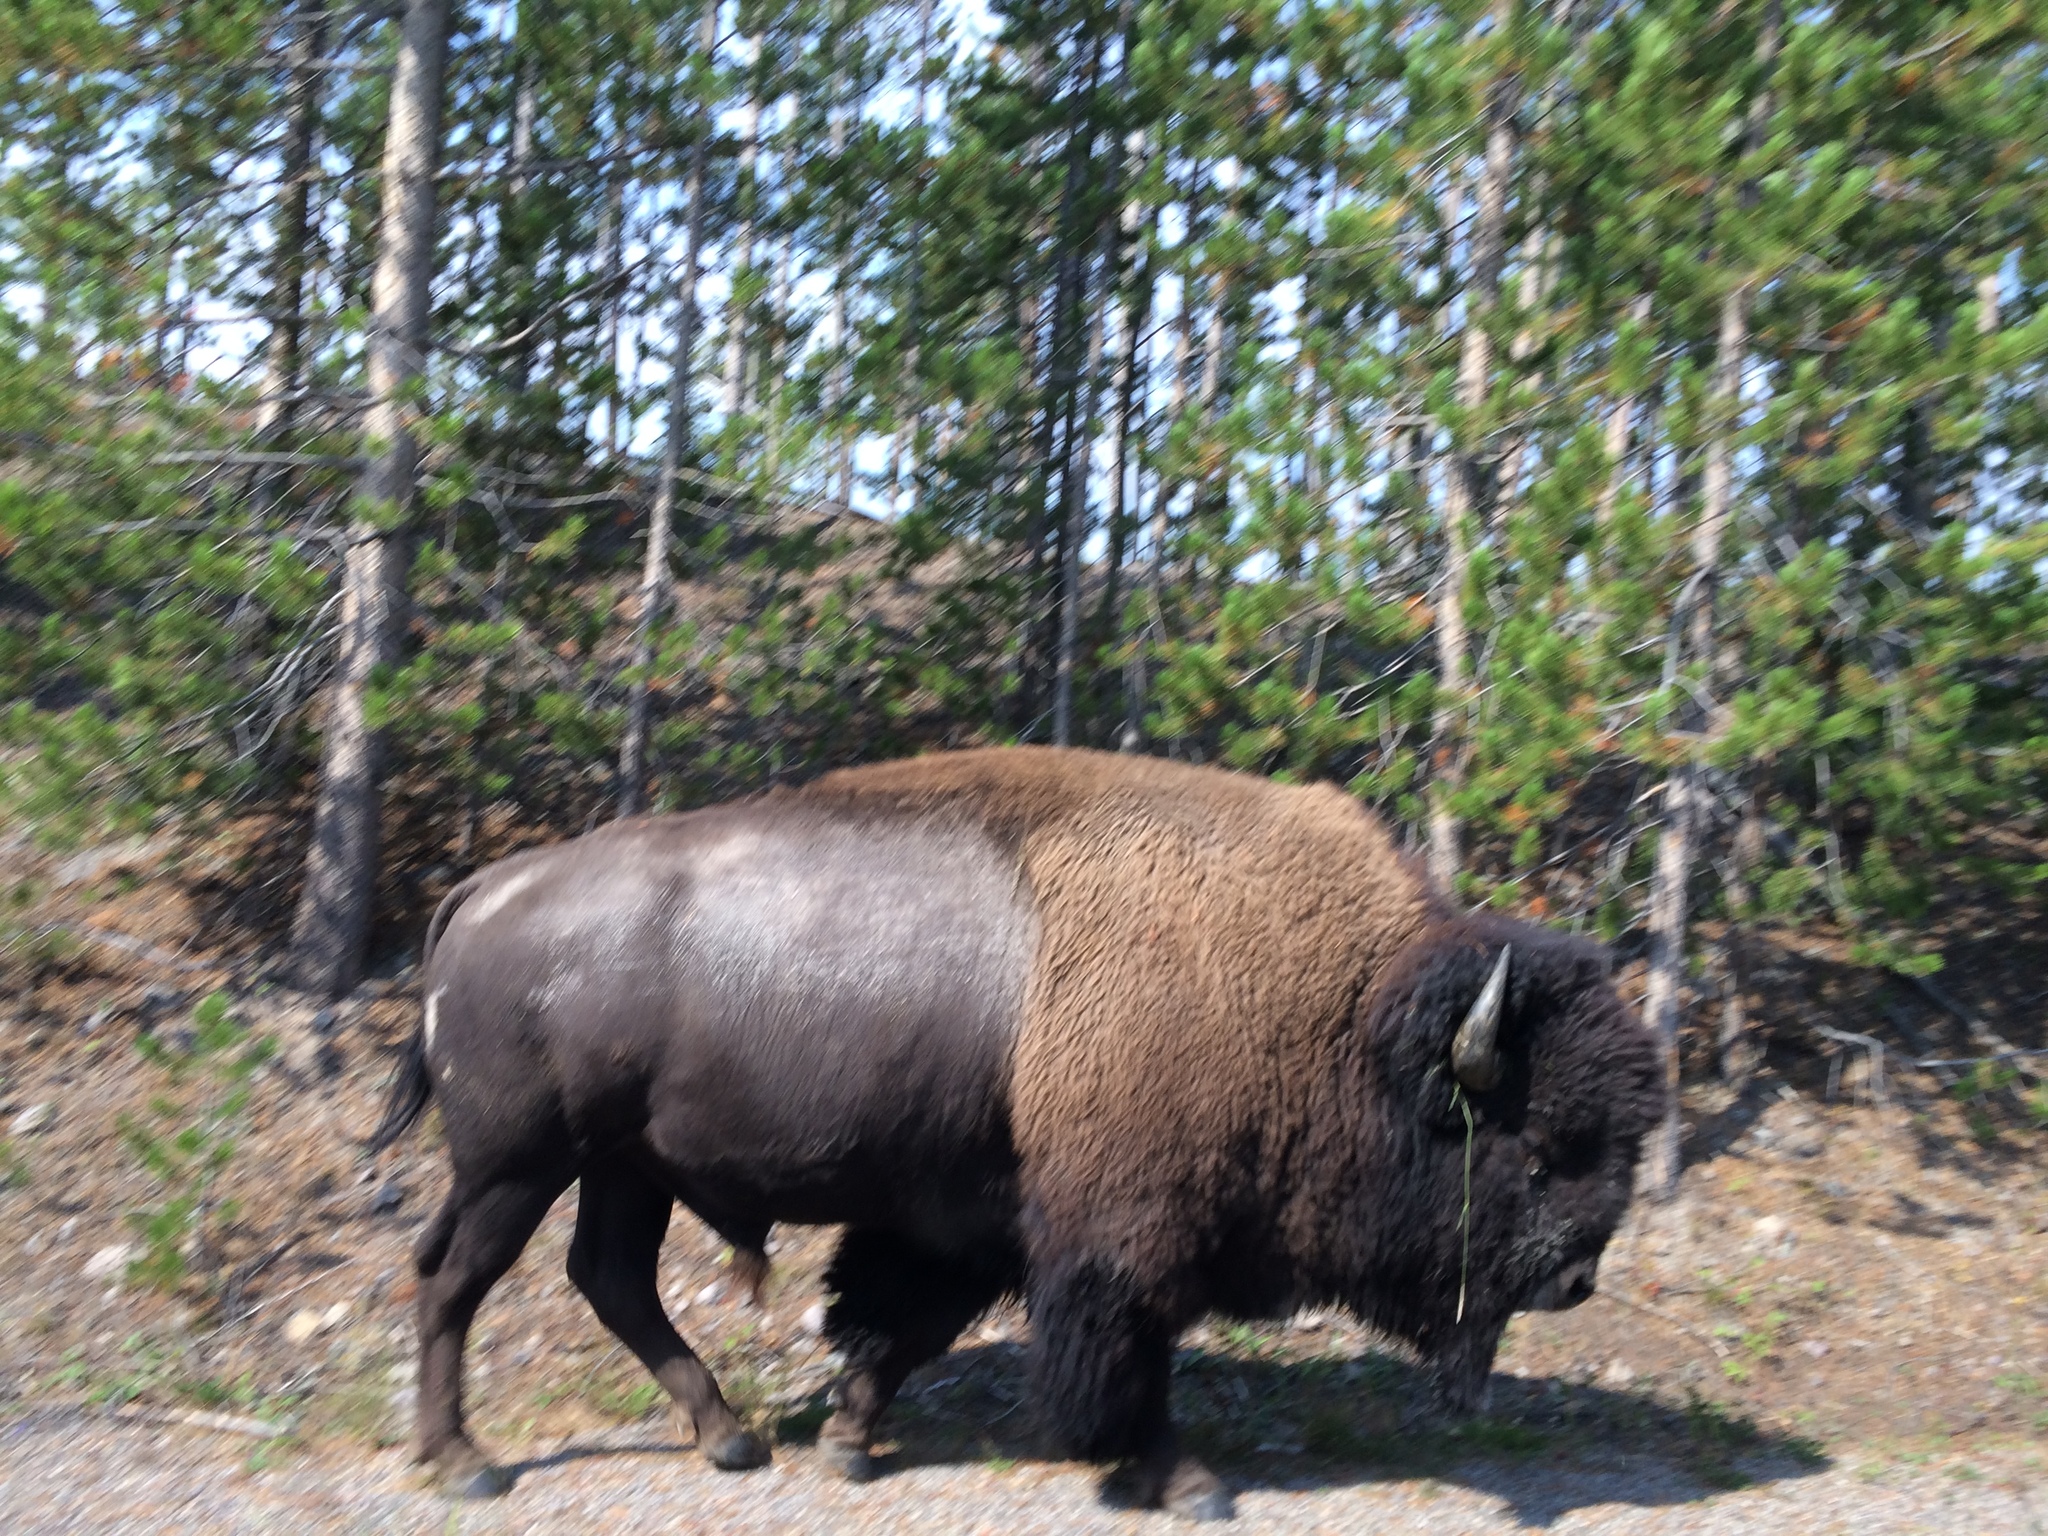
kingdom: Animalia
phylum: Chordata
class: Mammalia
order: Artiodactyla
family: Bovidae
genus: Bison
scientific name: Bison bison
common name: American bison
